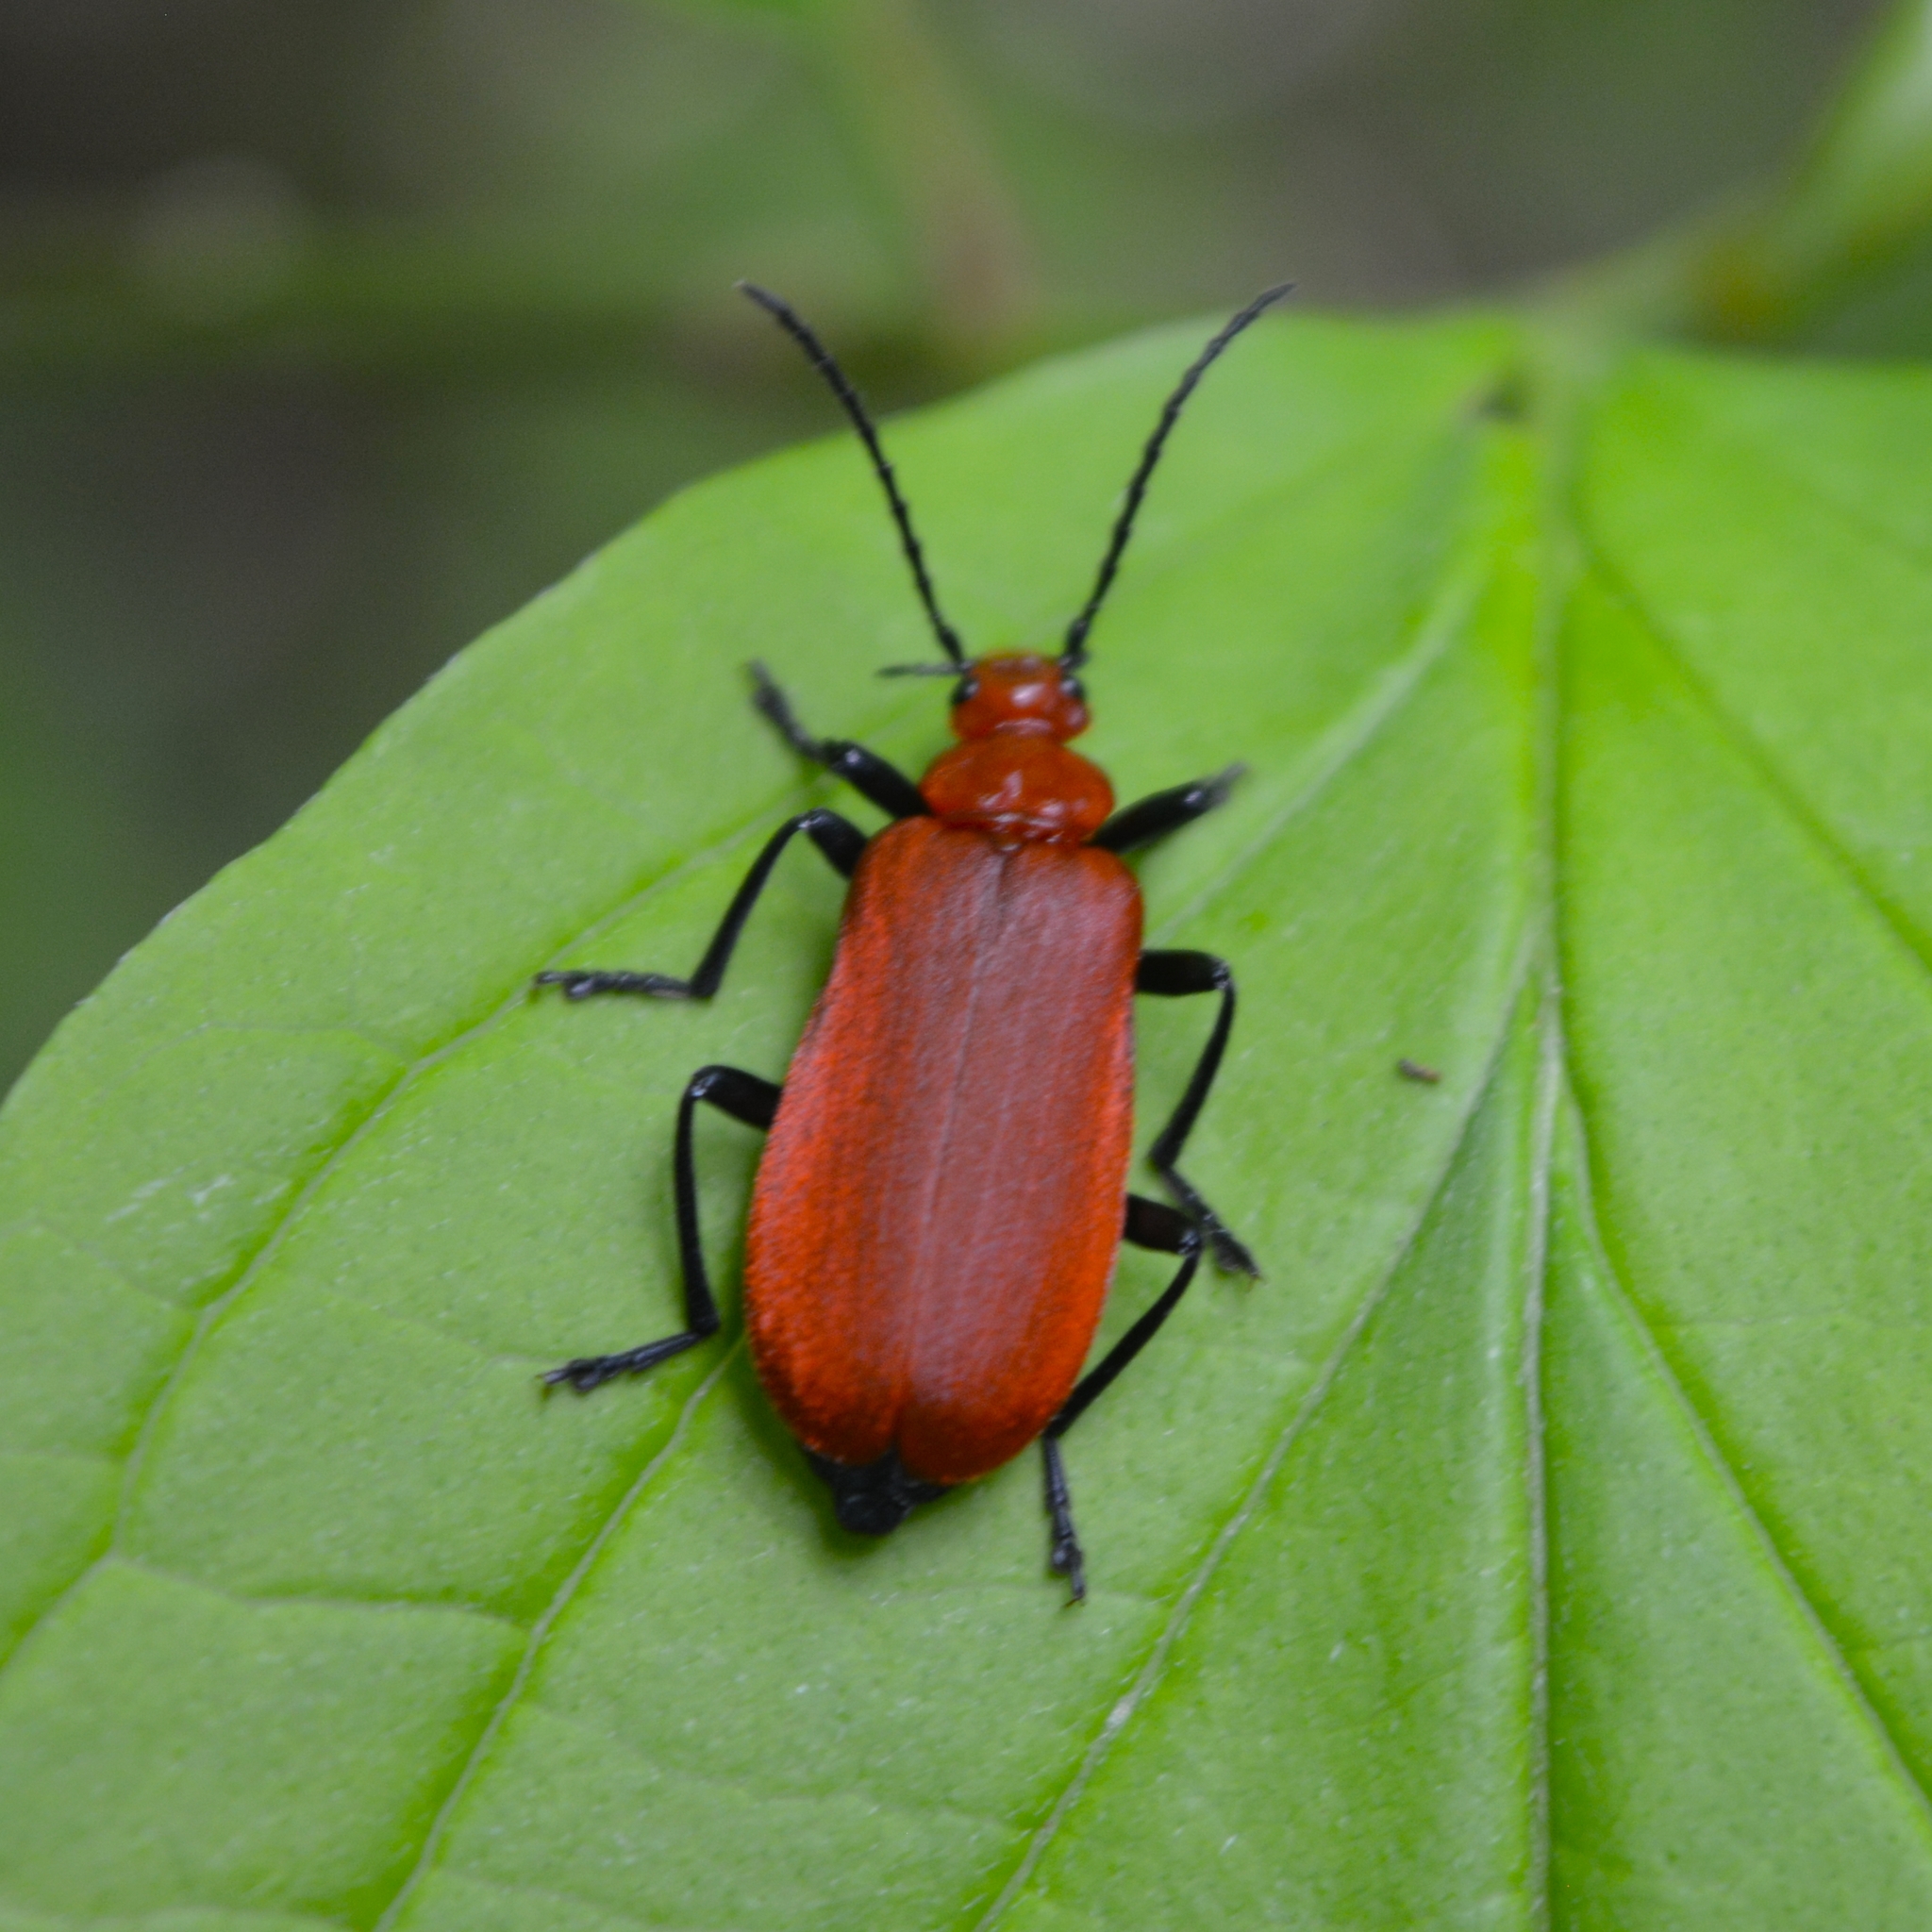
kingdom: Animalia
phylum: Arthropoda
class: Insecta
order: Coleoptera
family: Pyrochroidae
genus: Pyrochroa
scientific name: Pyrochroa serraticornis
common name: Red-headed cardinal beetle
